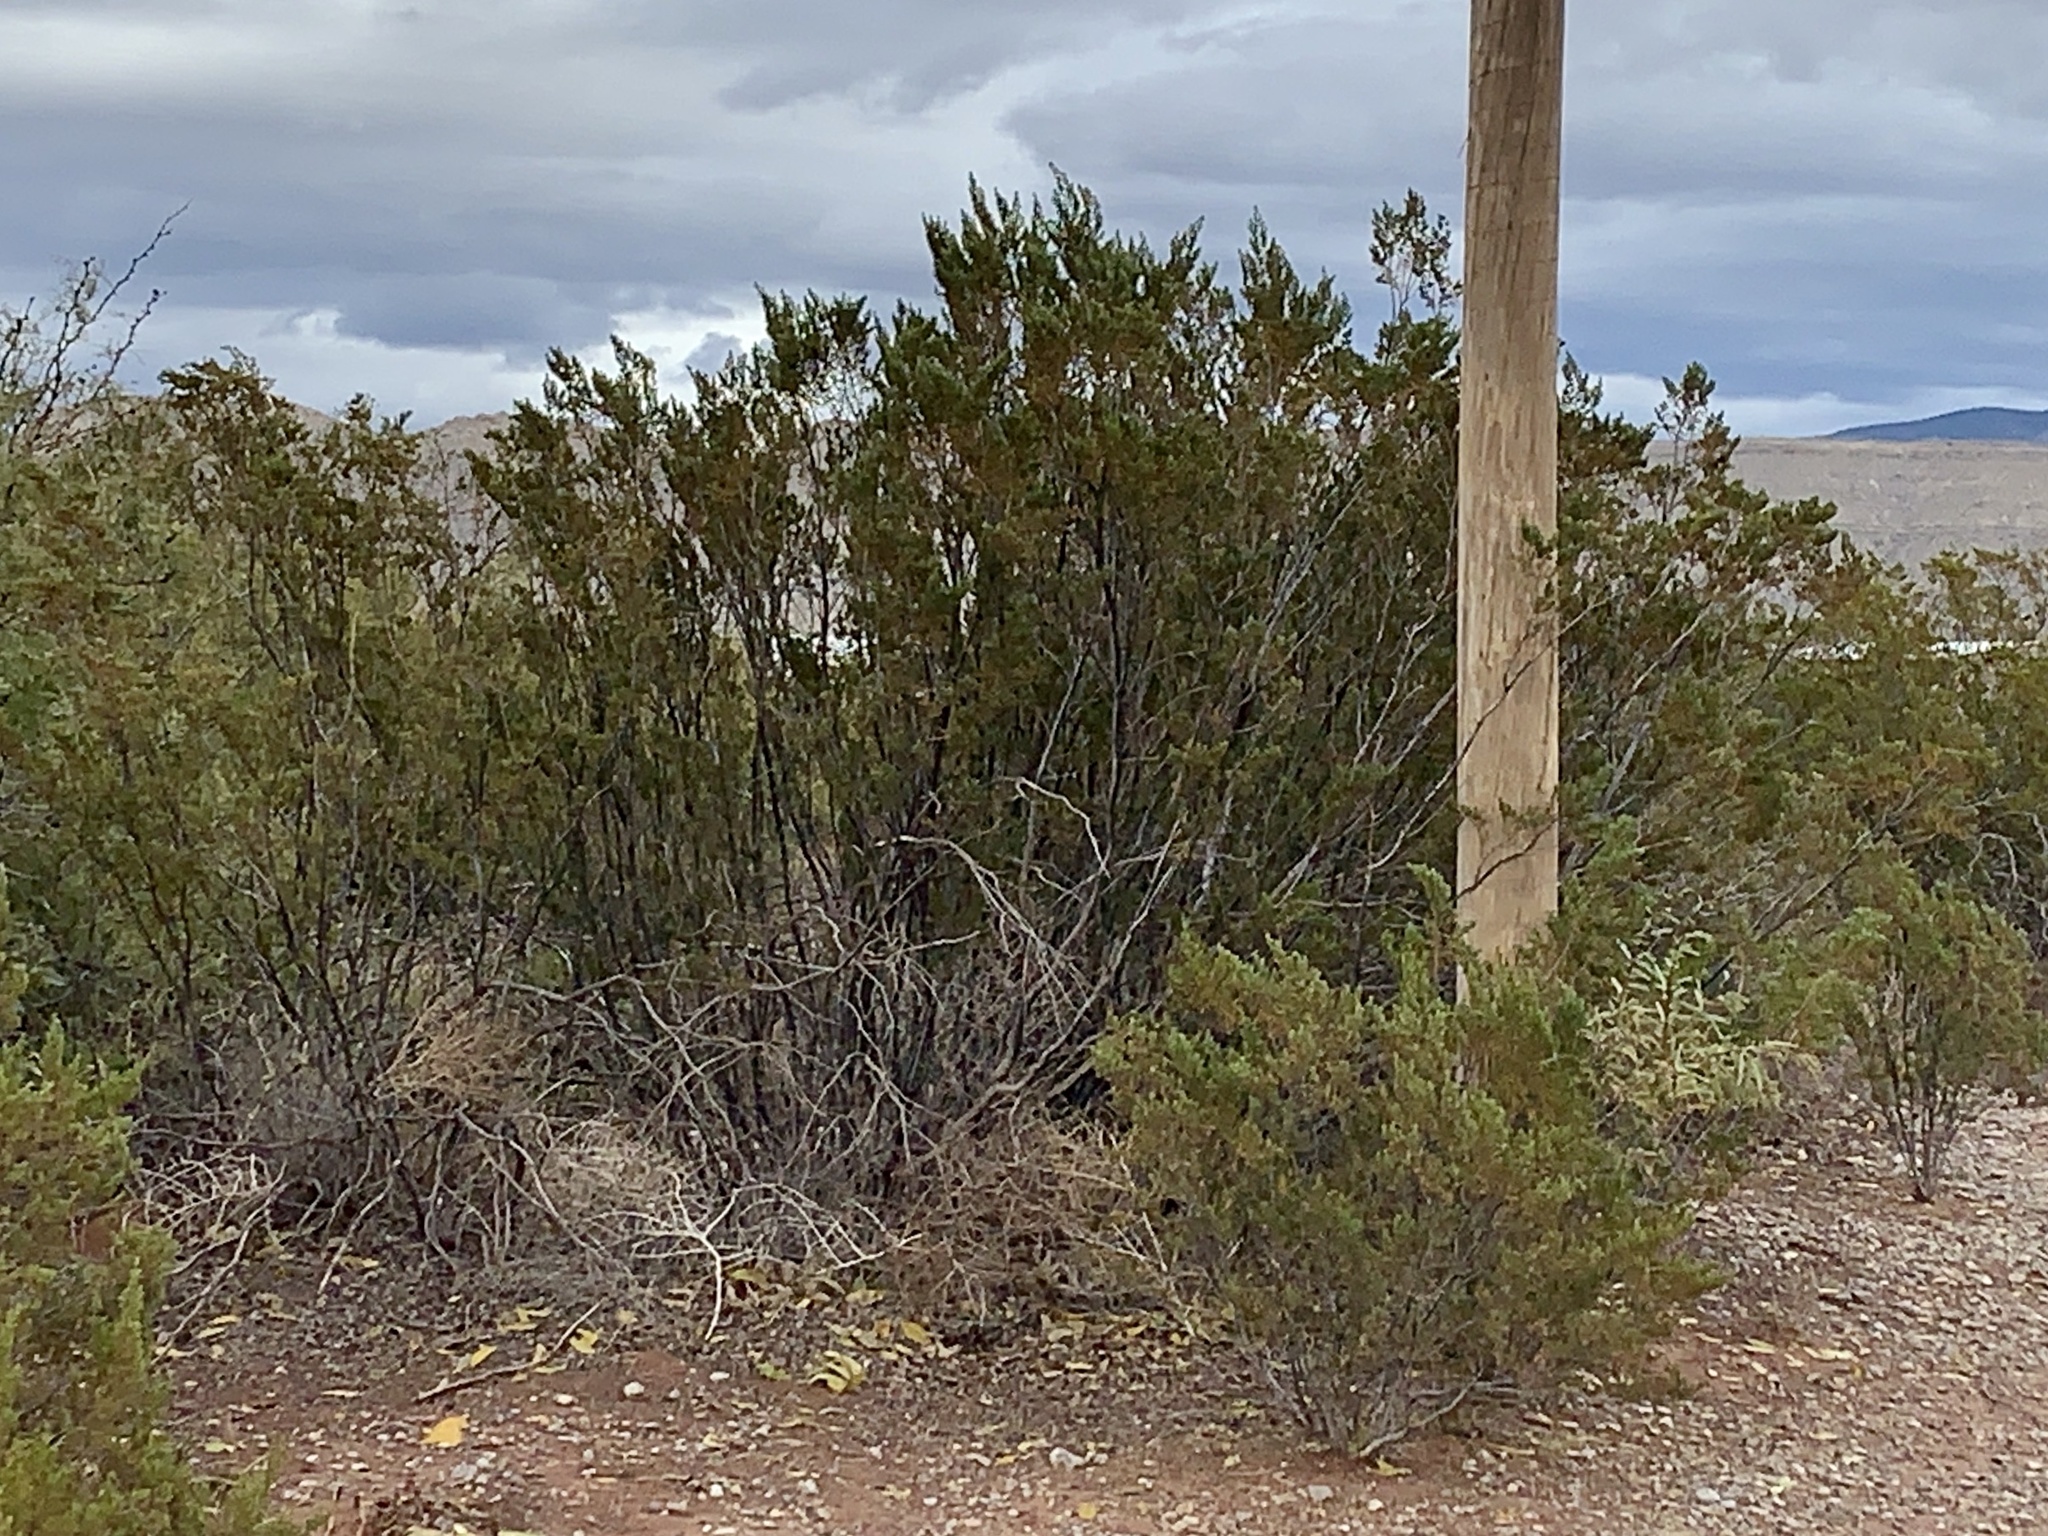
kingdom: Plantae
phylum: Tracheophyta
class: Magnoliopsida
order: Zygophyllales
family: Zygophyllaceae
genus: Larrea
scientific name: Larrea tridentata
